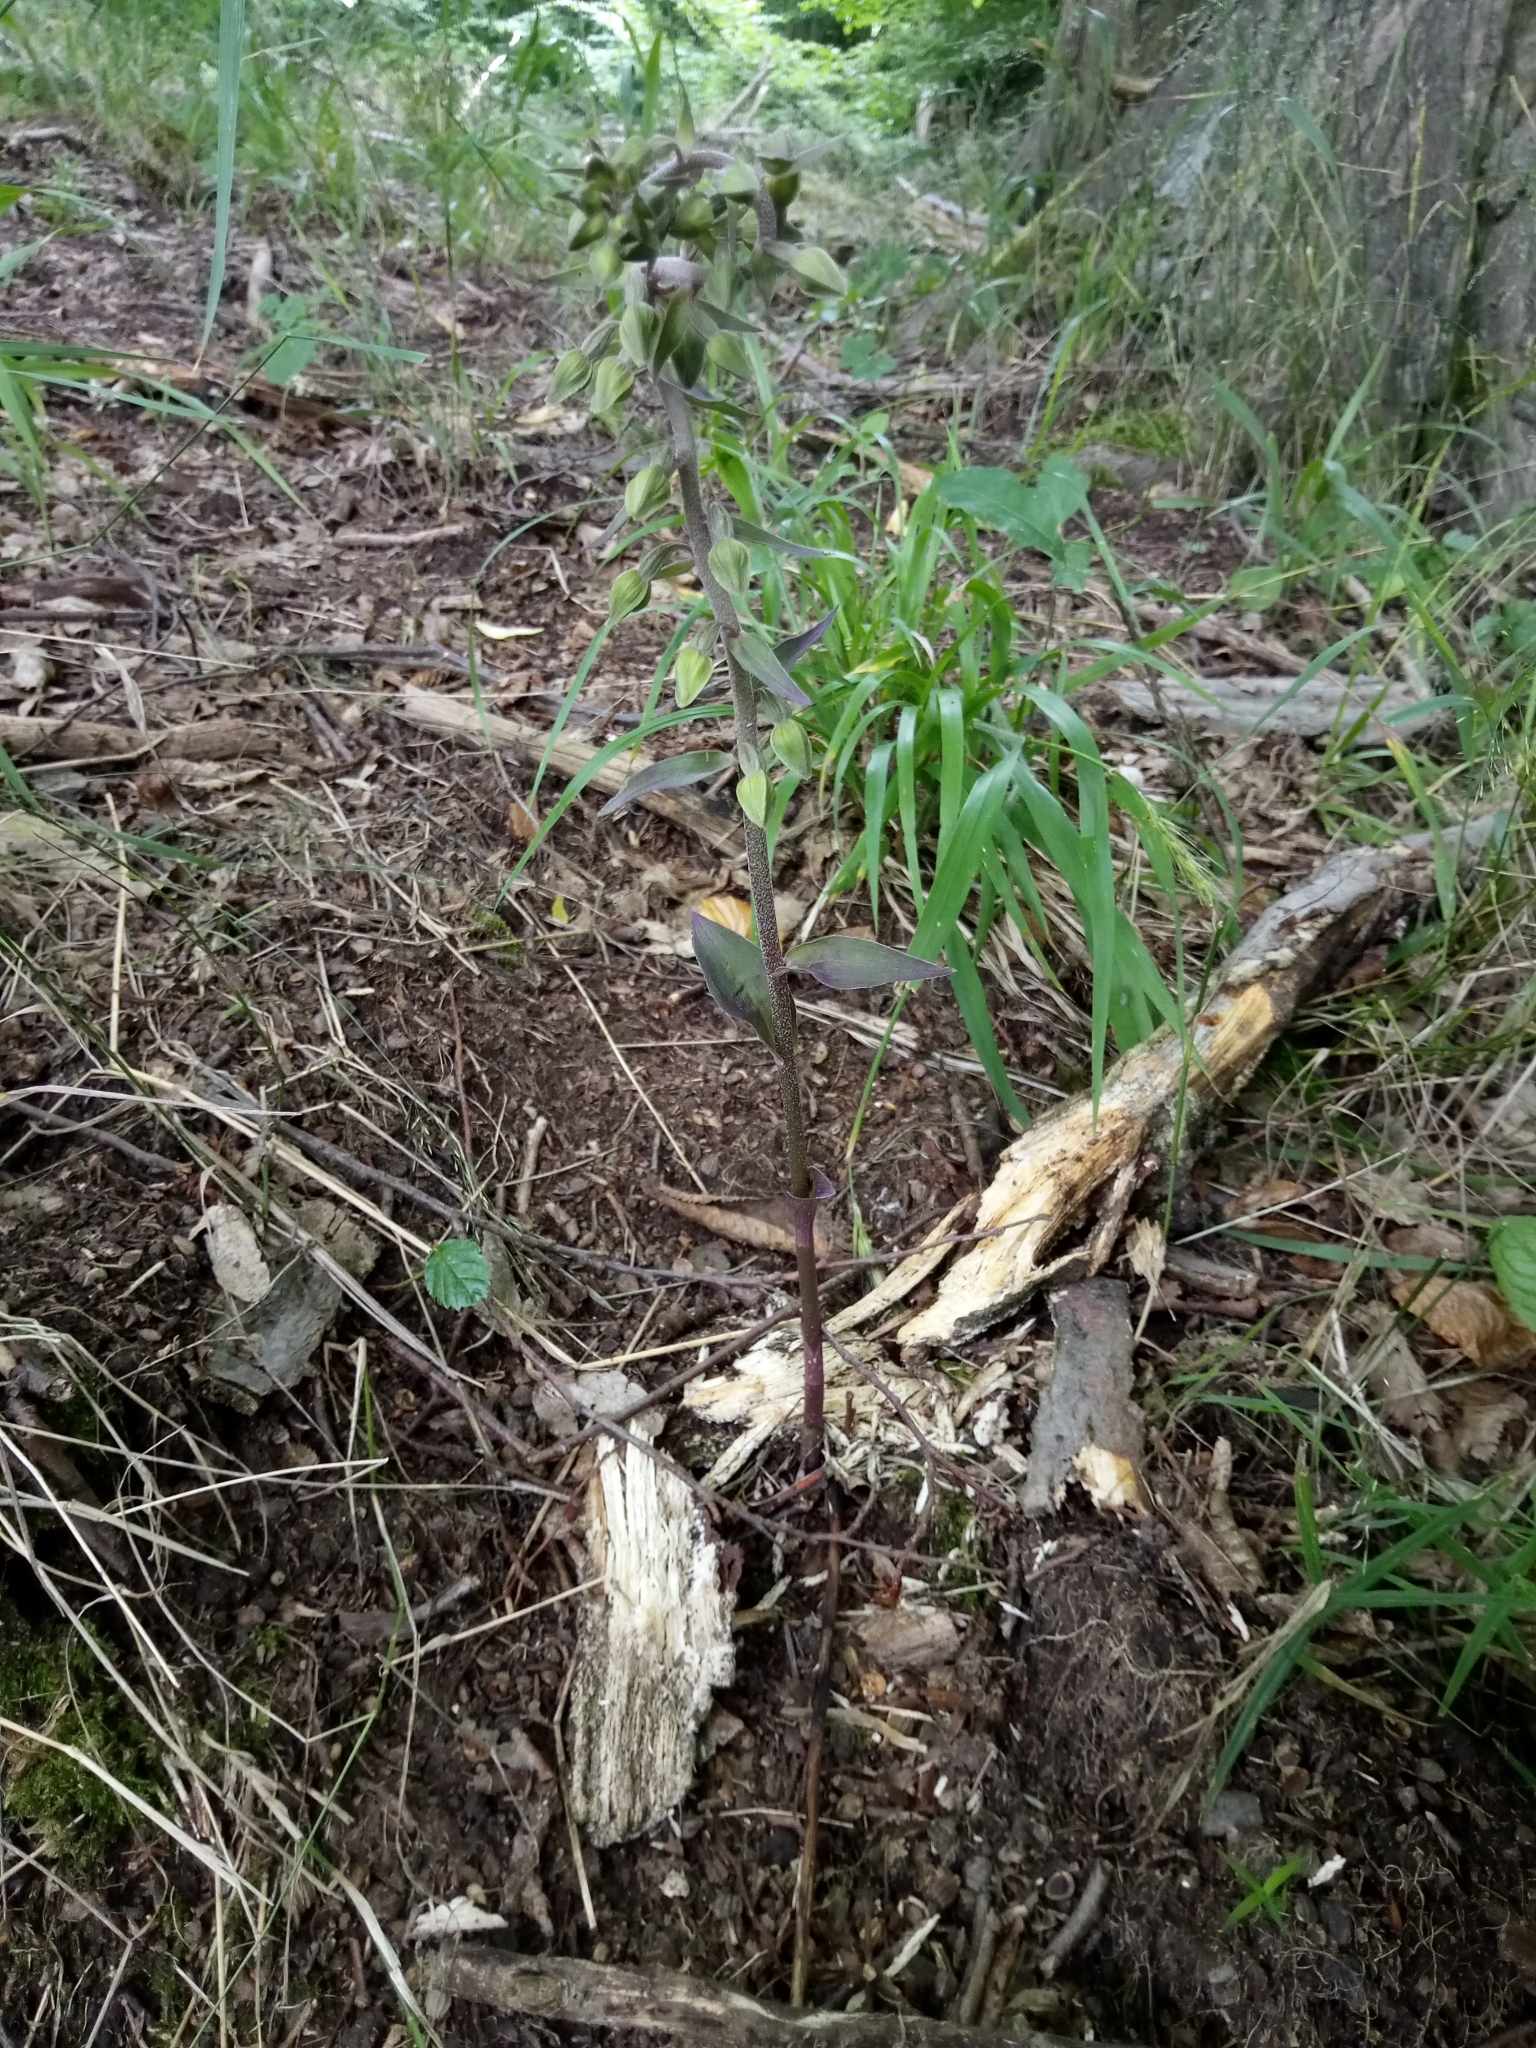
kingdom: Plantae
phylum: Tracheophyta
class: Liliopsida
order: Asparagales
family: Orchidaceae
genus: Epipactis
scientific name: Epipactis purpurata
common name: Violet helleborine
